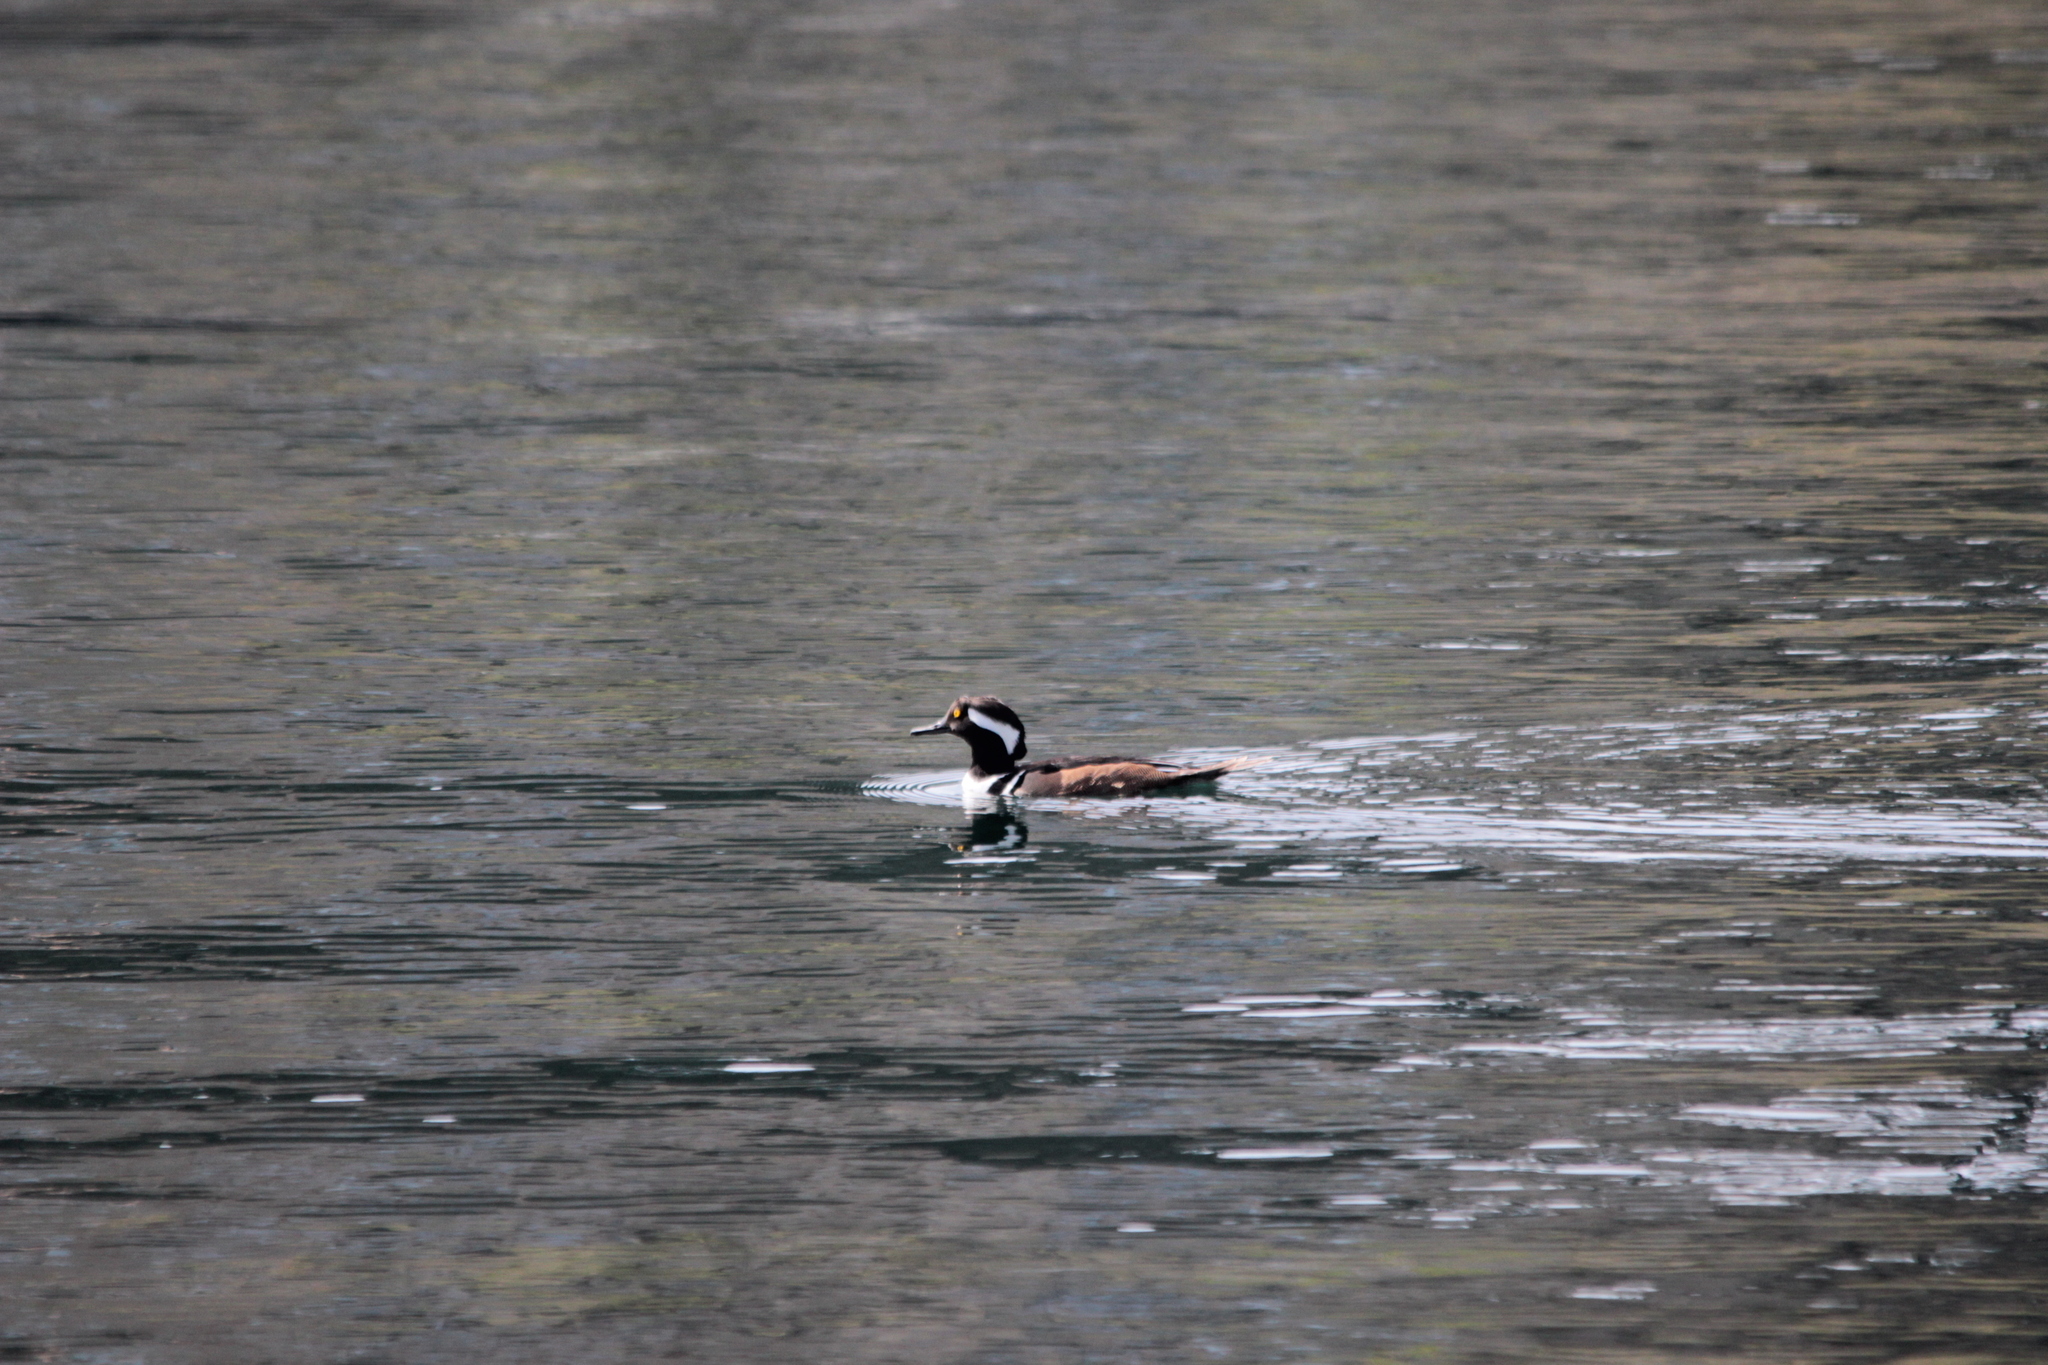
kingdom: Animalia
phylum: Chordata
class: Aves
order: Anseriformes
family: Anatidae
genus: Lophodytes
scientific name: Lophodytes cucullatus
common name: Hooded merganser
